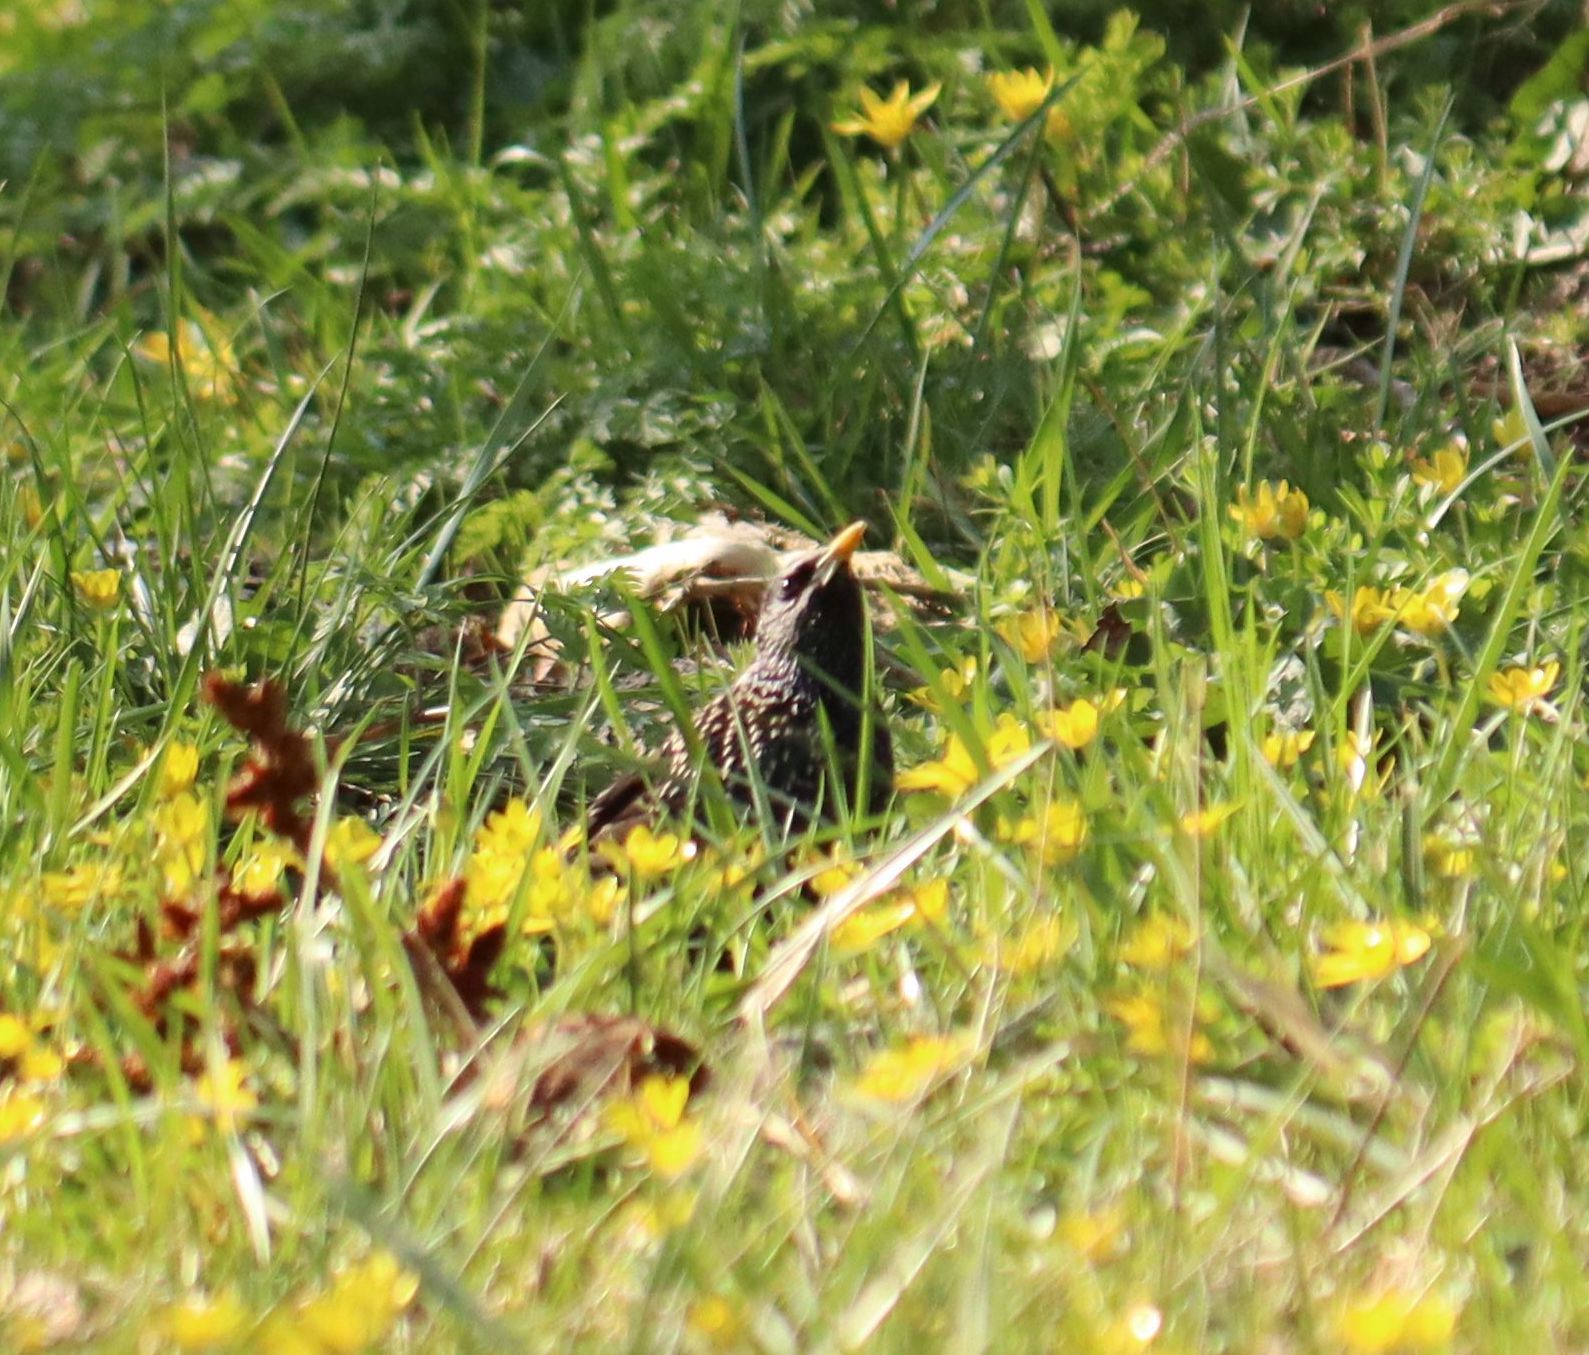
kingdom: Animalia
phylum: Chordata
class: Aves
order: Passeriformes
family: Sturnidae
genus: Sturnus
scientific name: Sturnus vulgaris
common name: Common starling
